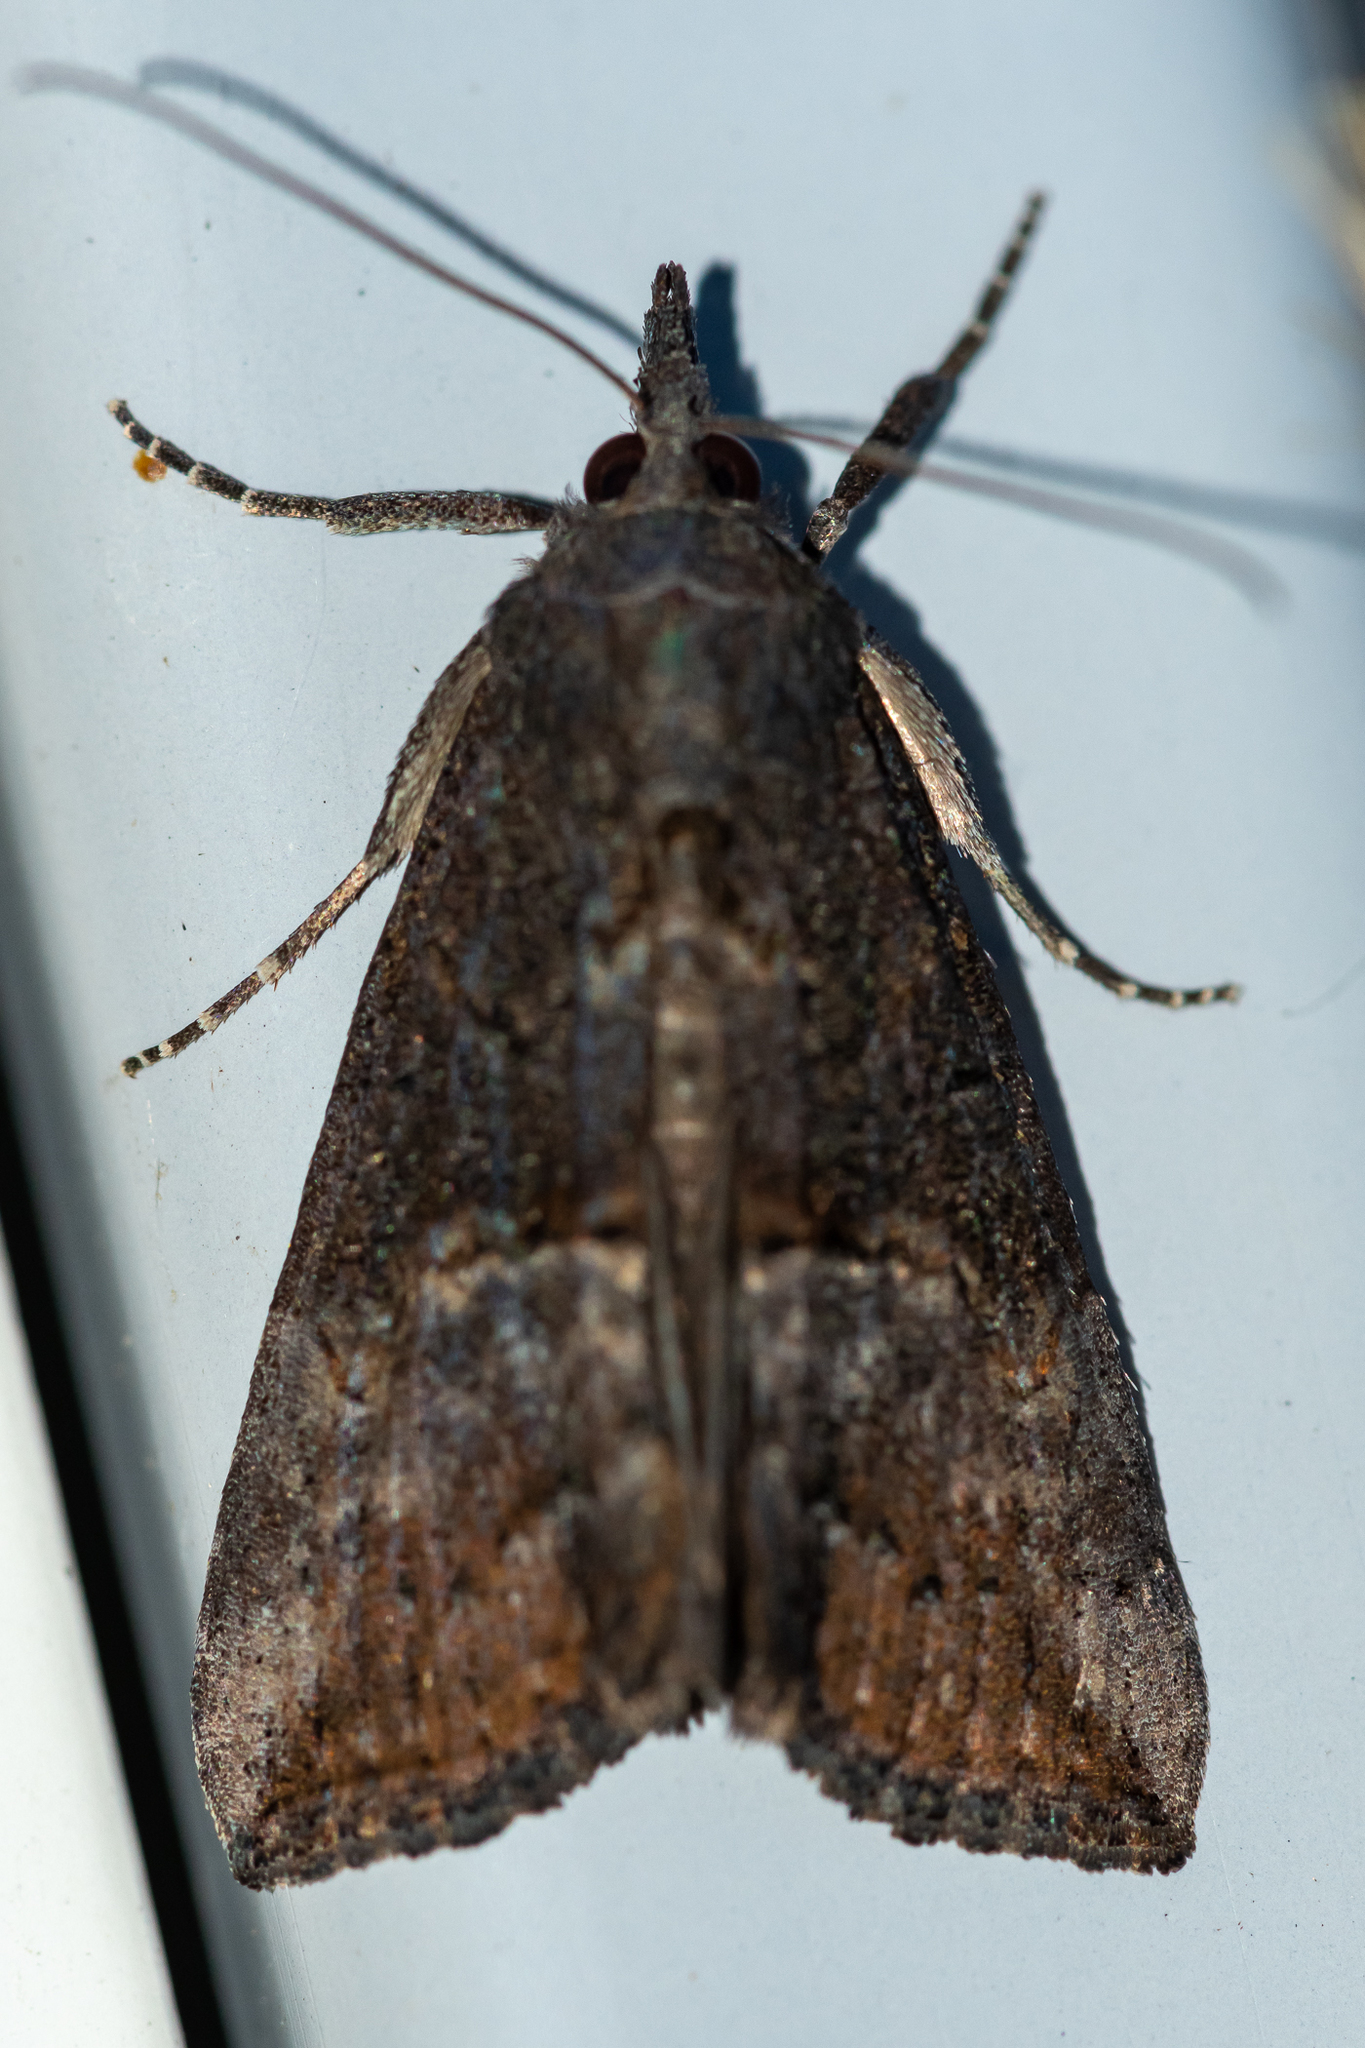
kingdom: Animalia
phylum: Arthropoda
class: Insecta
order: Lepidoptera
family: Erebidae
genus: Hypena
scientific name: Hypena scabra
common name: Green cloverworm
